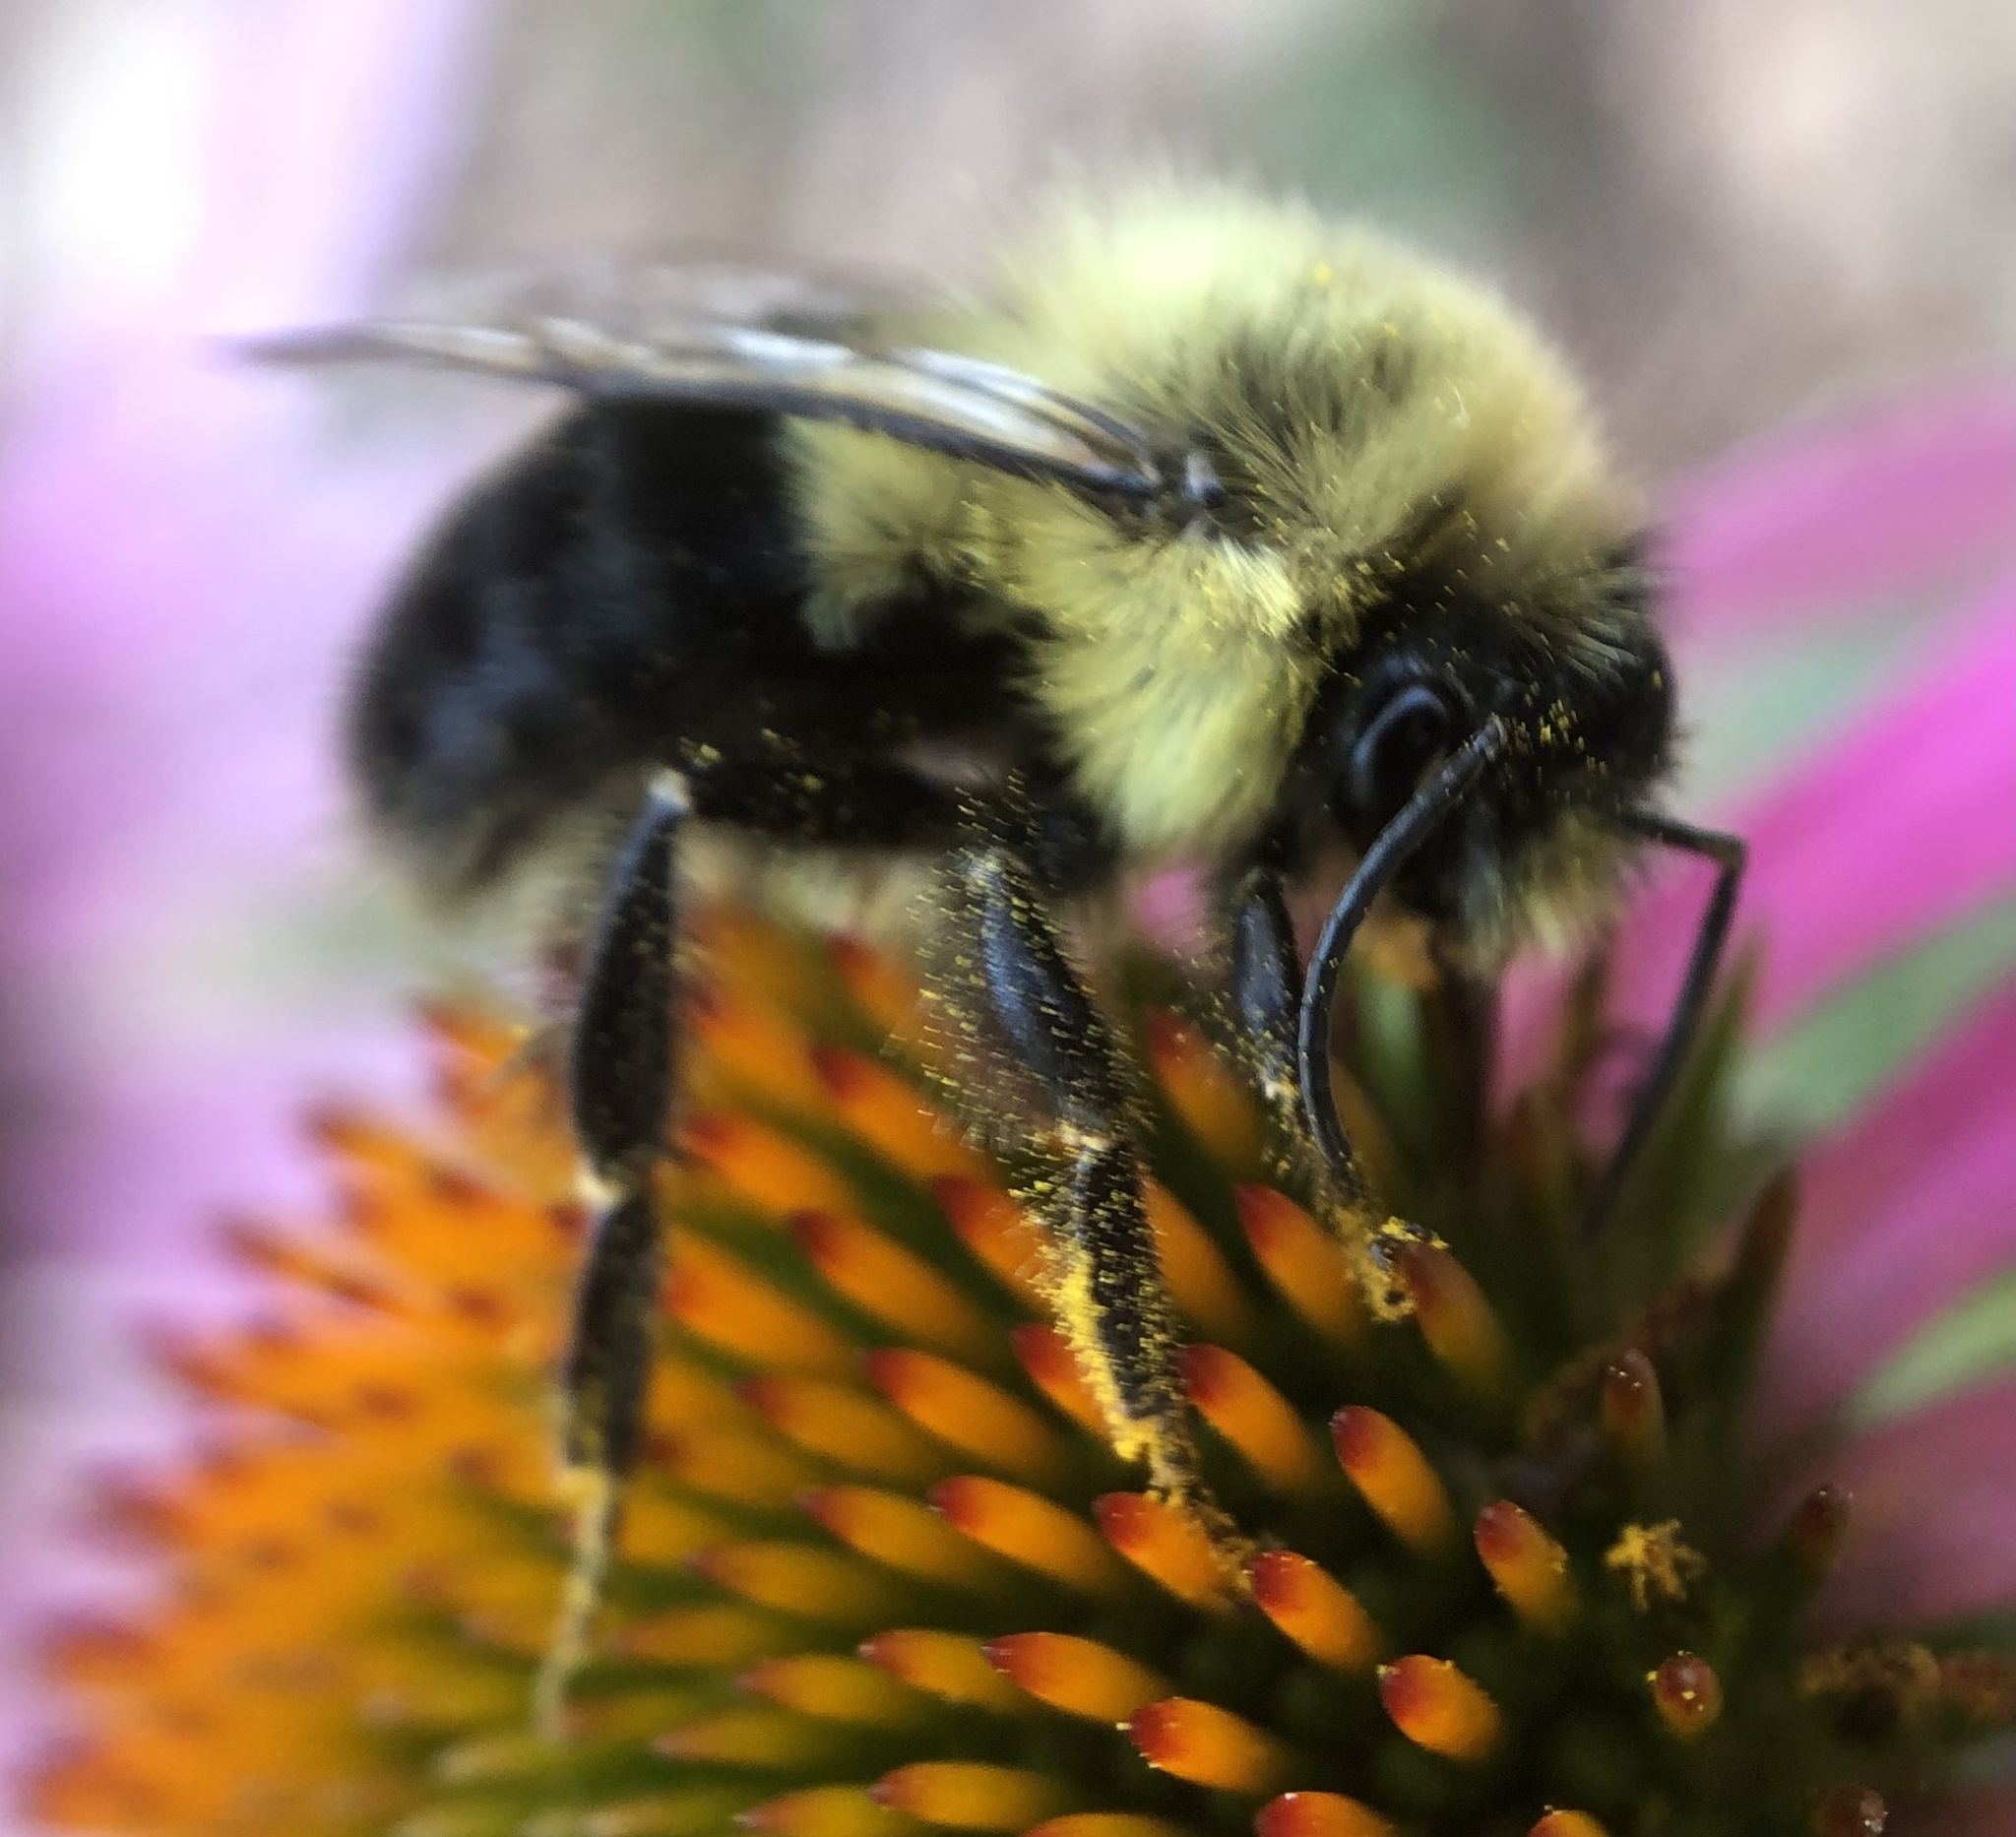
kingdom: Animalia
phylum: Arthropoda
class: Insecta
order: Hymenoptera
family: Apidae
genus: Bombus
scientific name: Bombus impatiens
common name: Common eastern bumble bee
